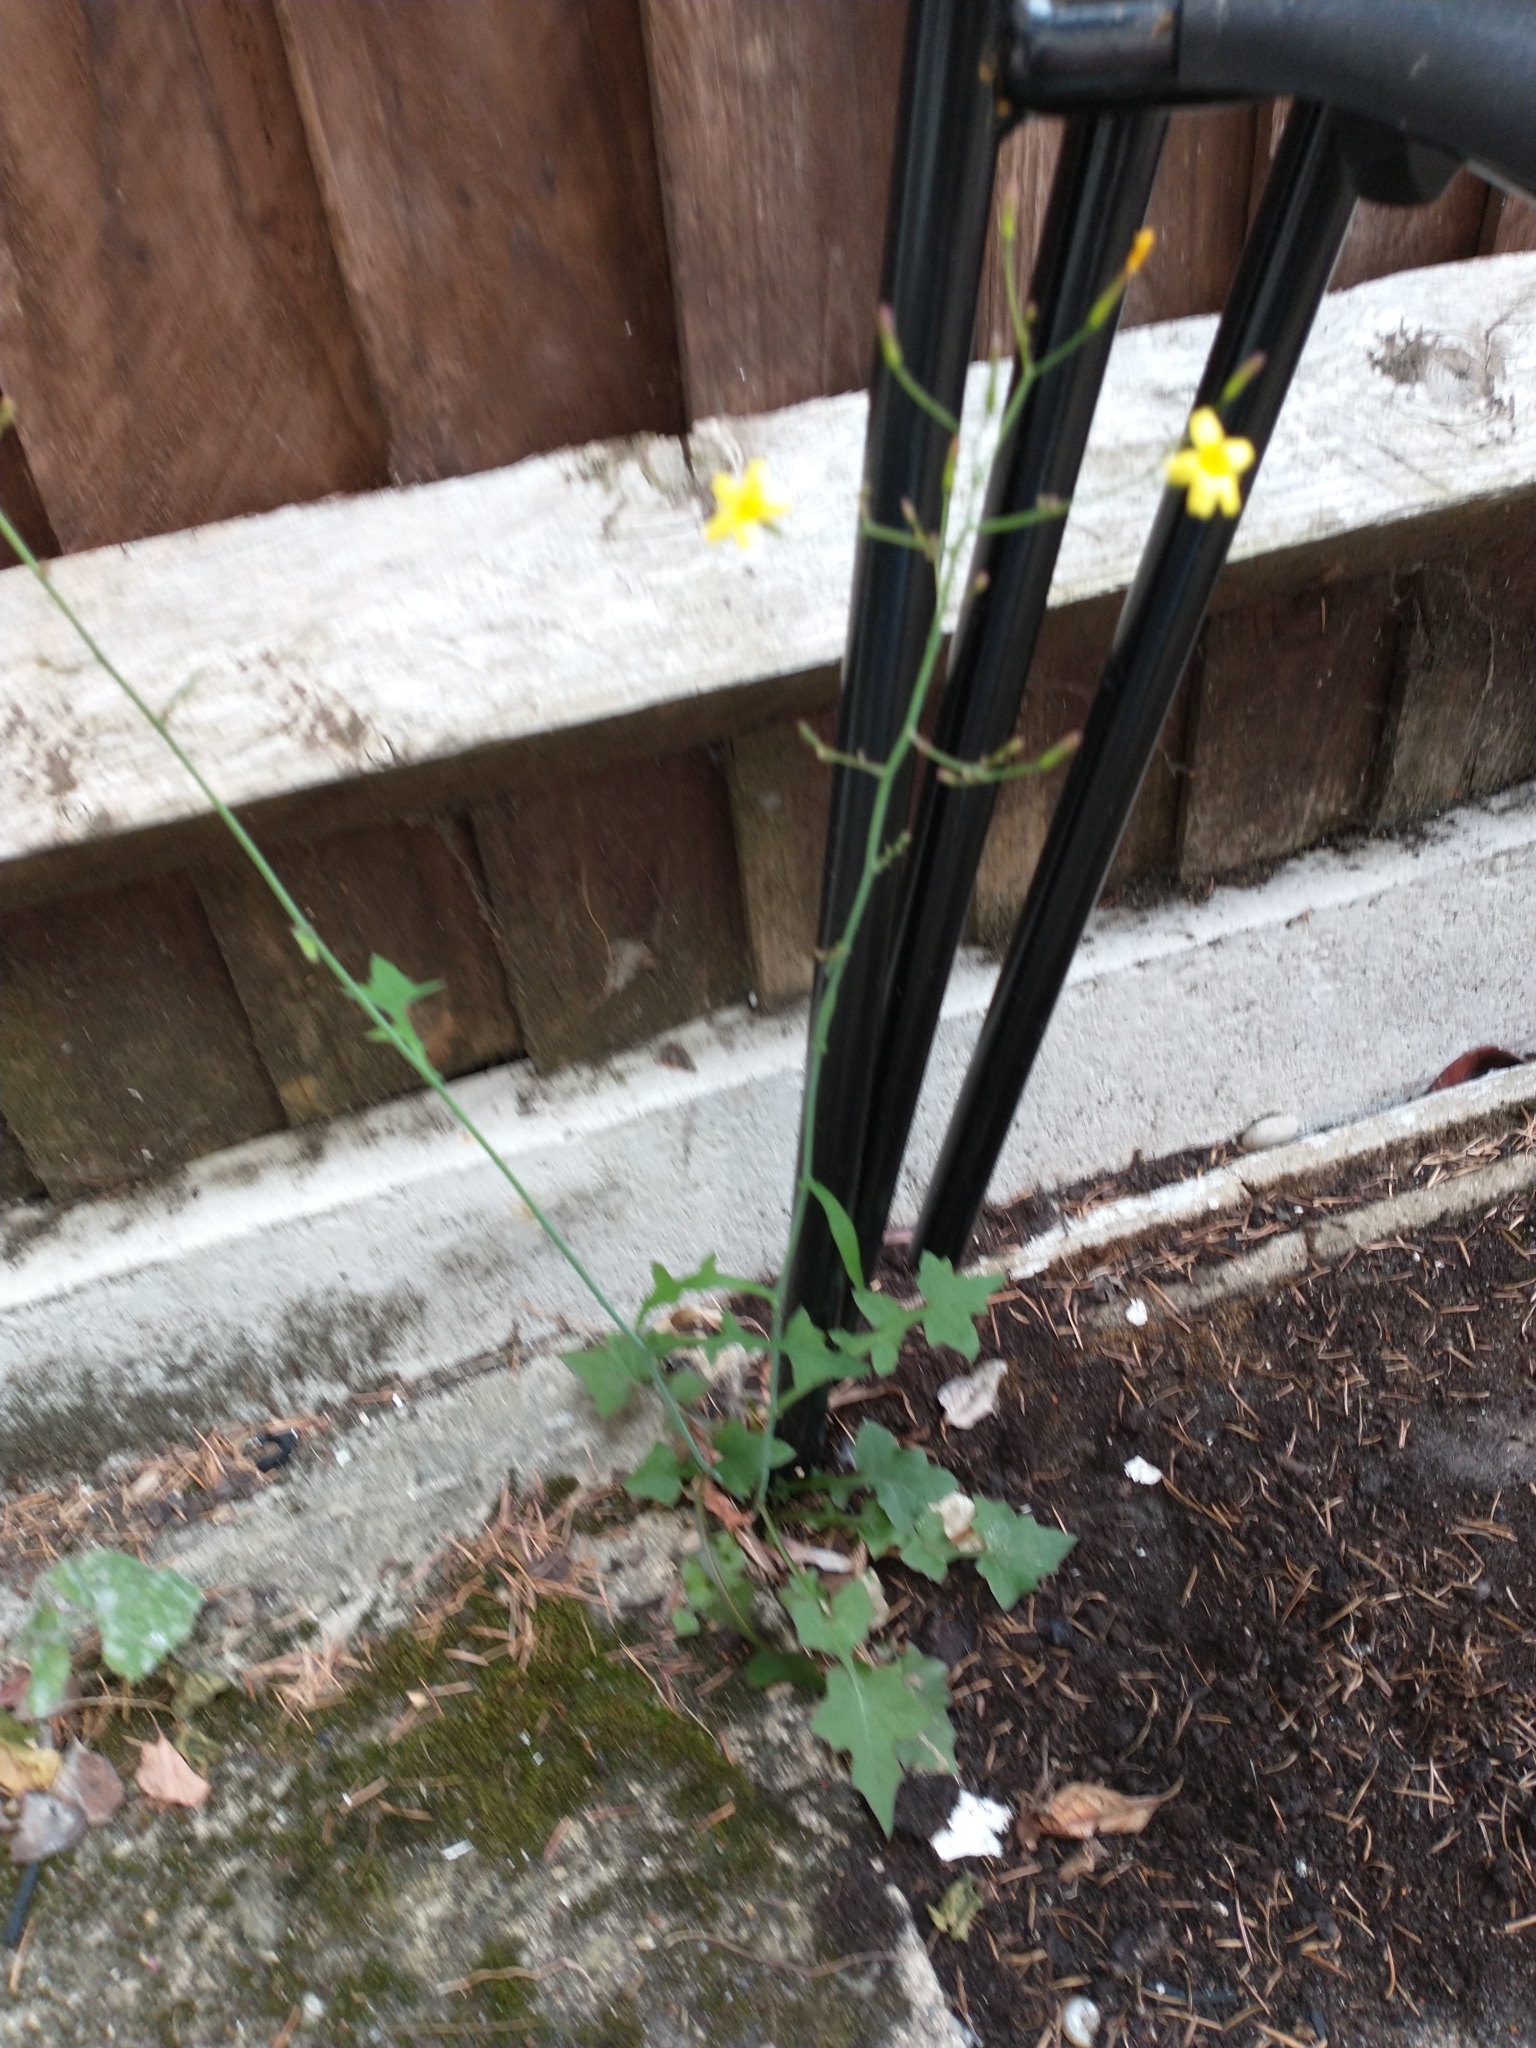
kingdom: Plantae
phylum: Tracheophyta
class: Magnoliopsida
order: Asterales
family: Asteraceae
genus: Mycelis
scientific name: Mycelis muralis
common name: Wall lettuce
